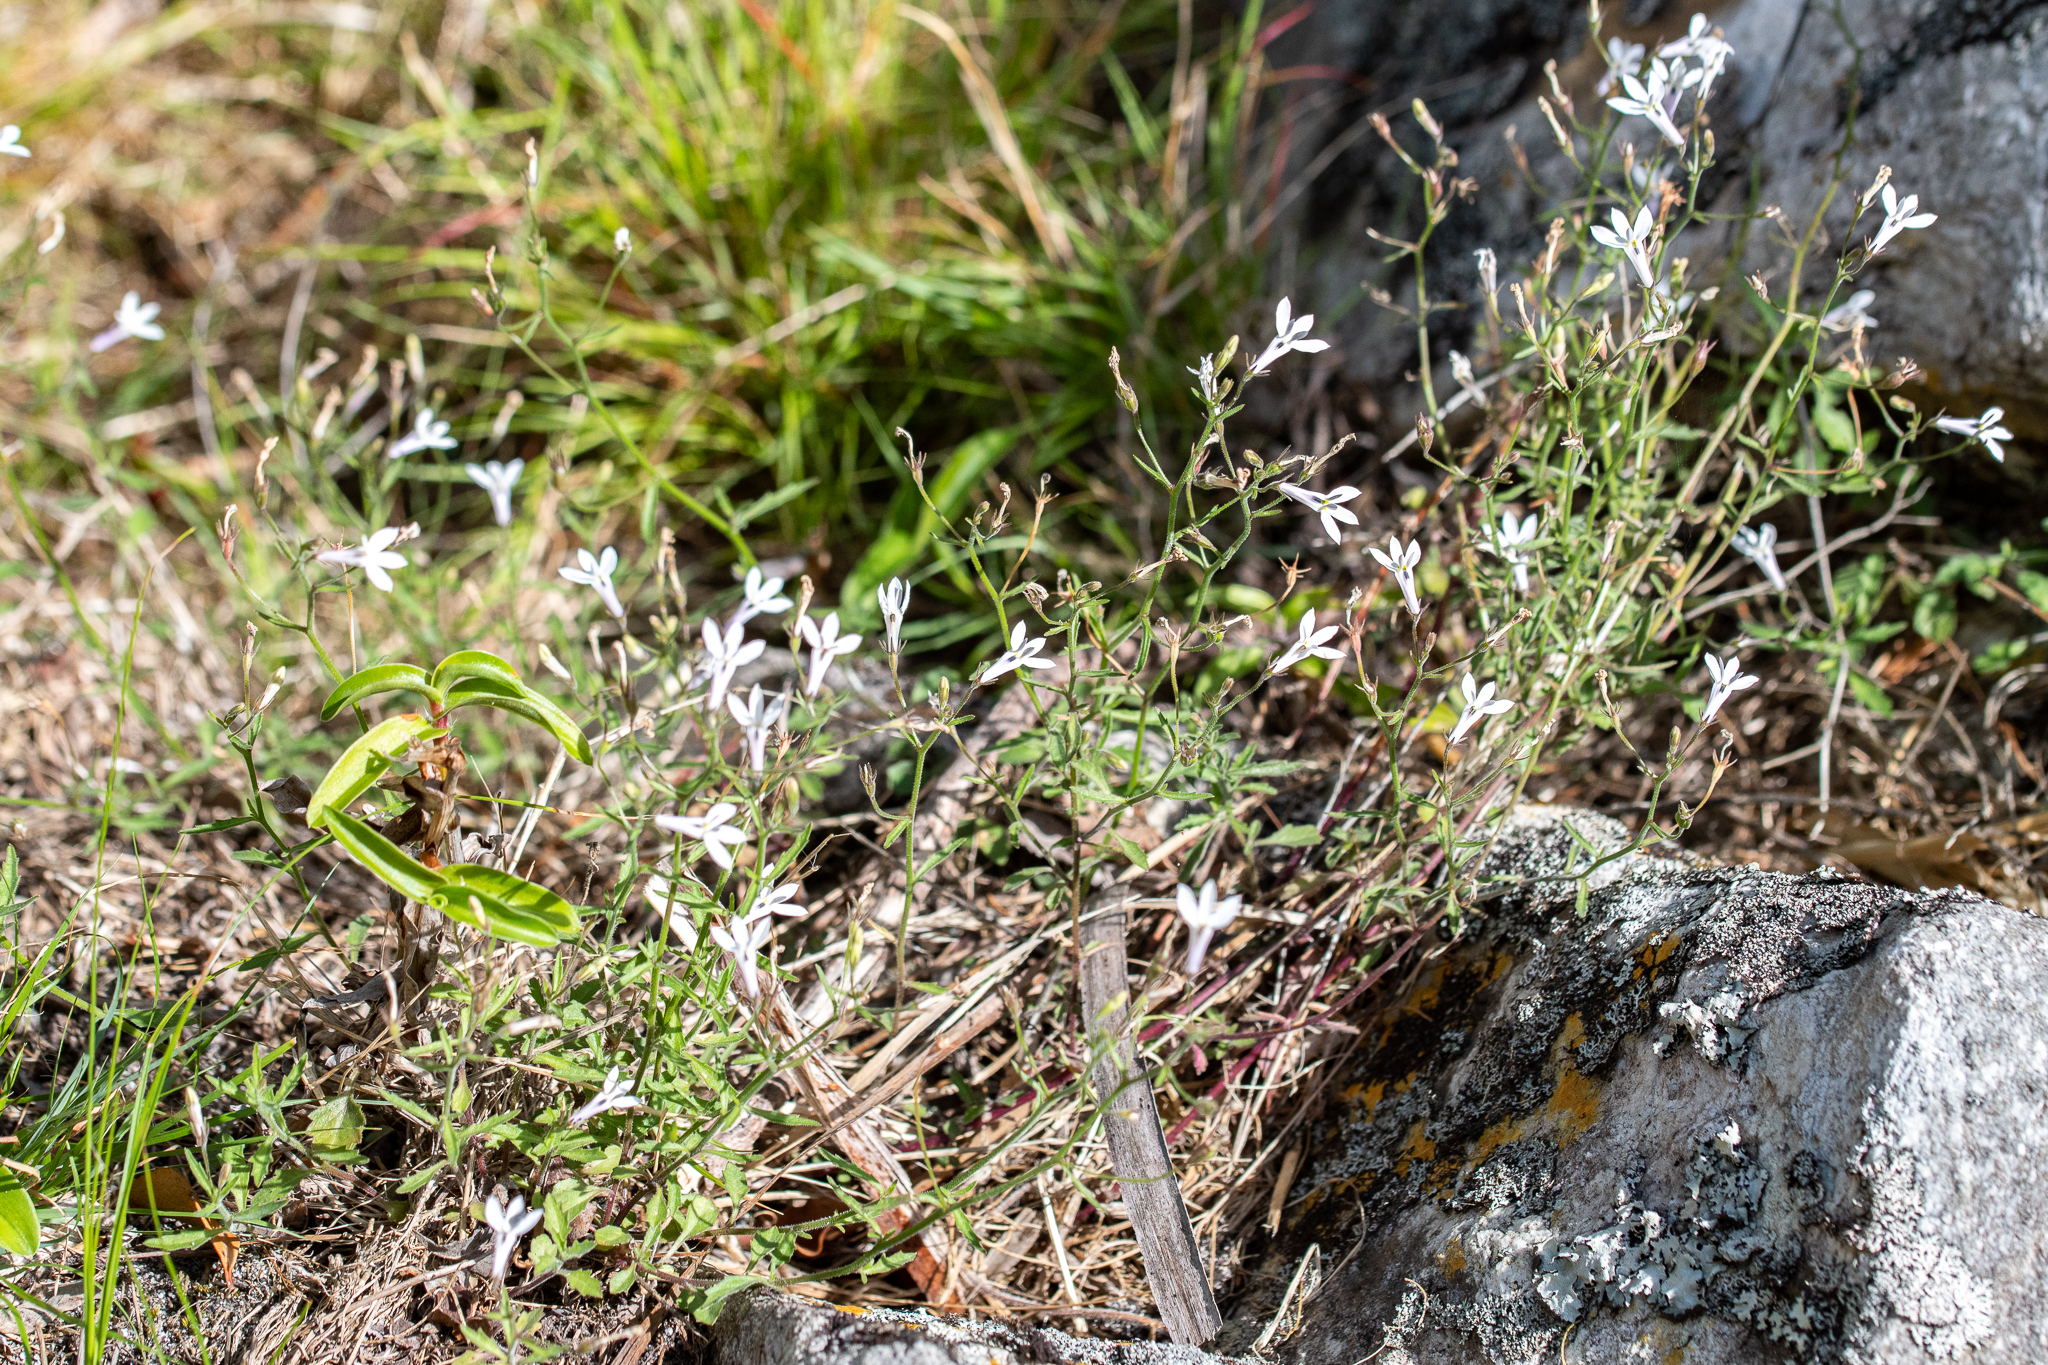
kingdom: Plantae
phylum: Tracheophyta
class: Magnoliopsida
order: Asterales
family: Campanulaceae
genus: Lobelia
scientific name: Lobelia pubescens
